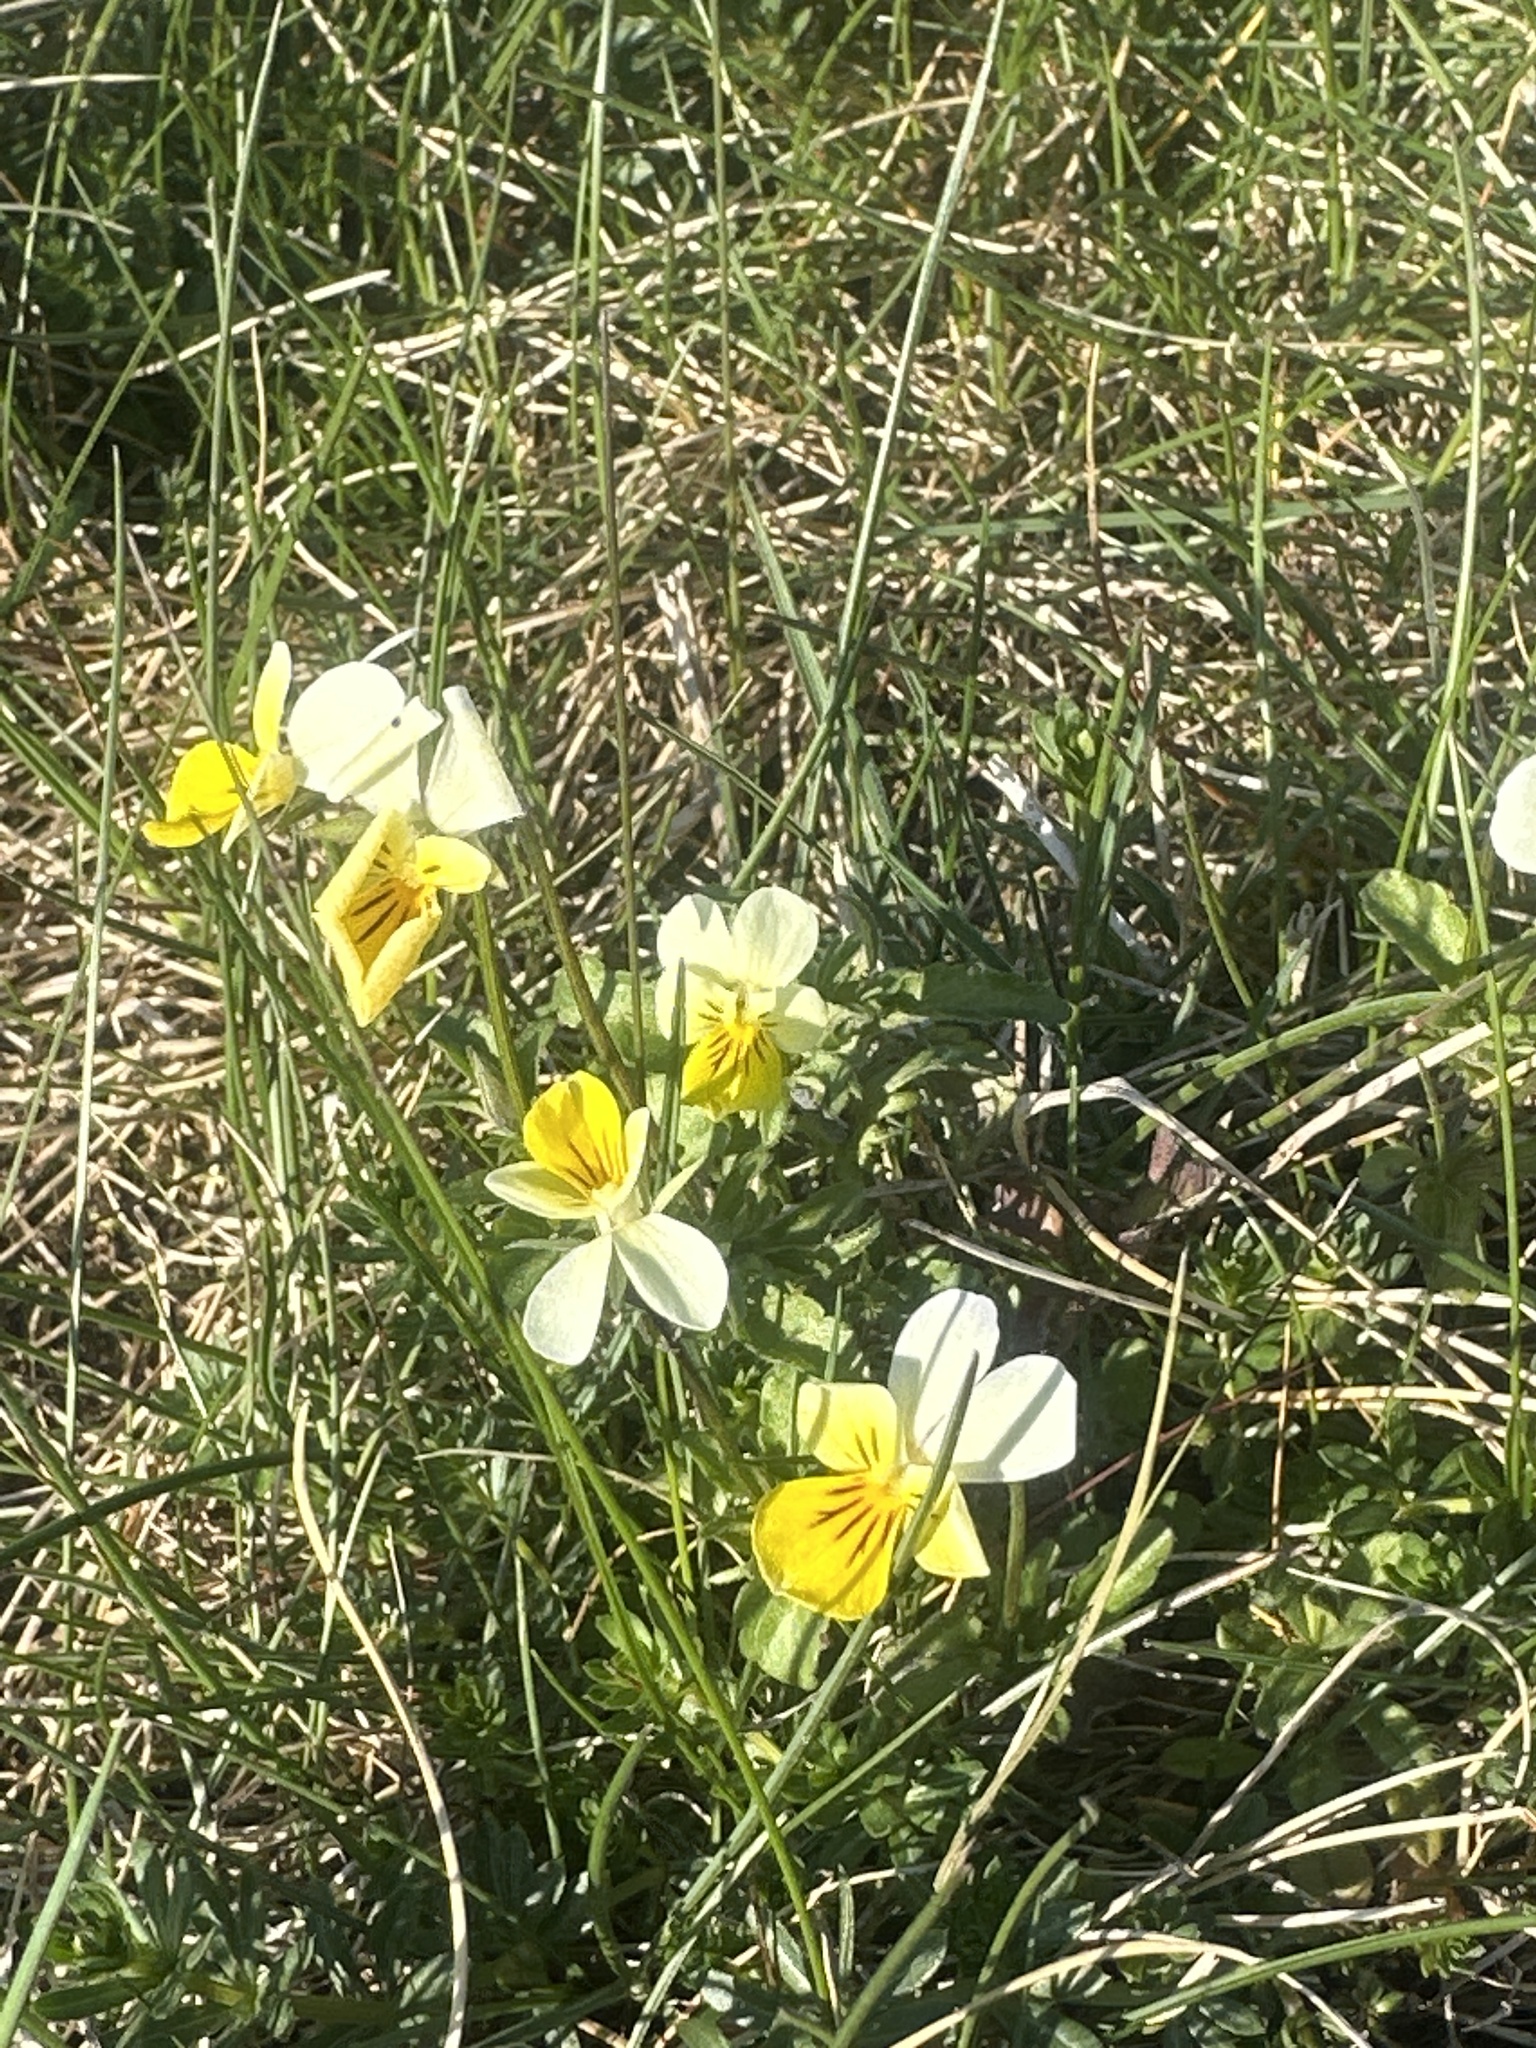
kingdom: Plantae
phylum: Tracheophyta
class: Magnoliopsida
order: Malpighiales
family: Violaceae
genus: Viola
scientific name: Viola tricolor
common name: Pansy
